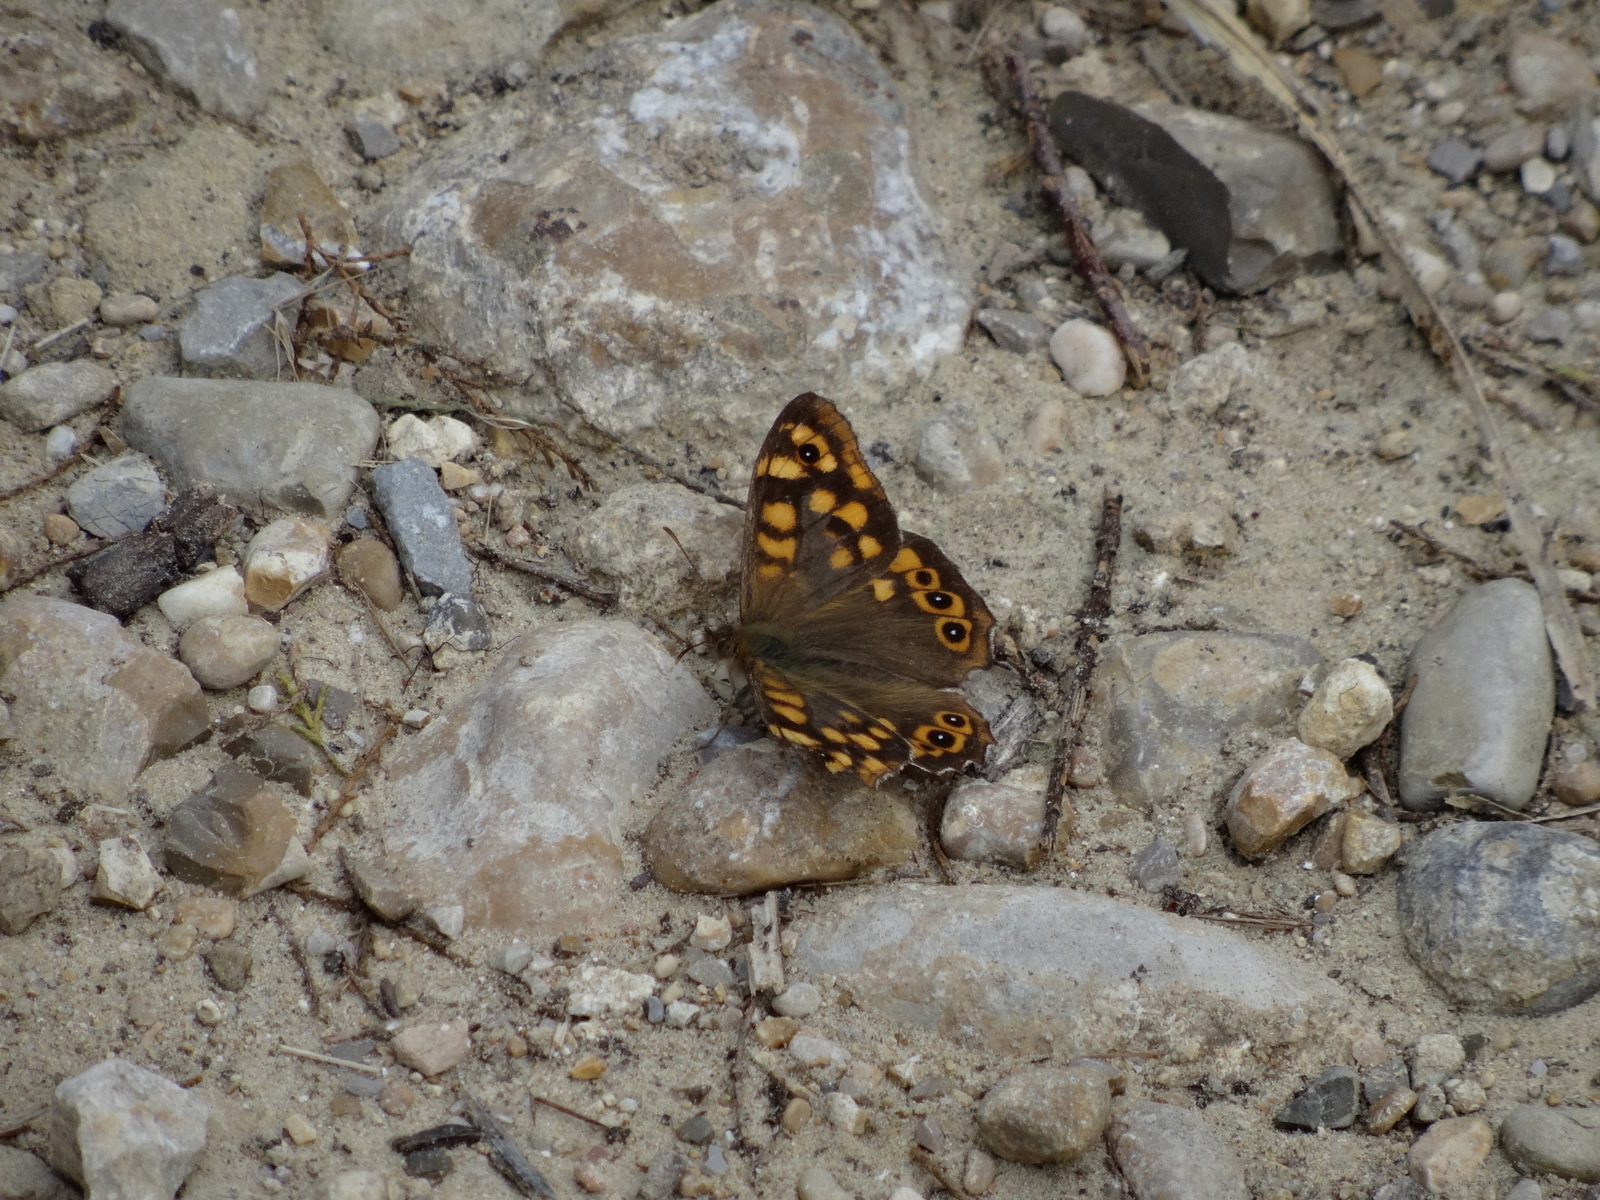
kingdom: Animalia
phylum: Arthropoda
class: Insecta
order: Lepidoptera
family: Nymphalidae
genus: Pararge
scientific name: Pararge aegeria
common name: Speckled wood
